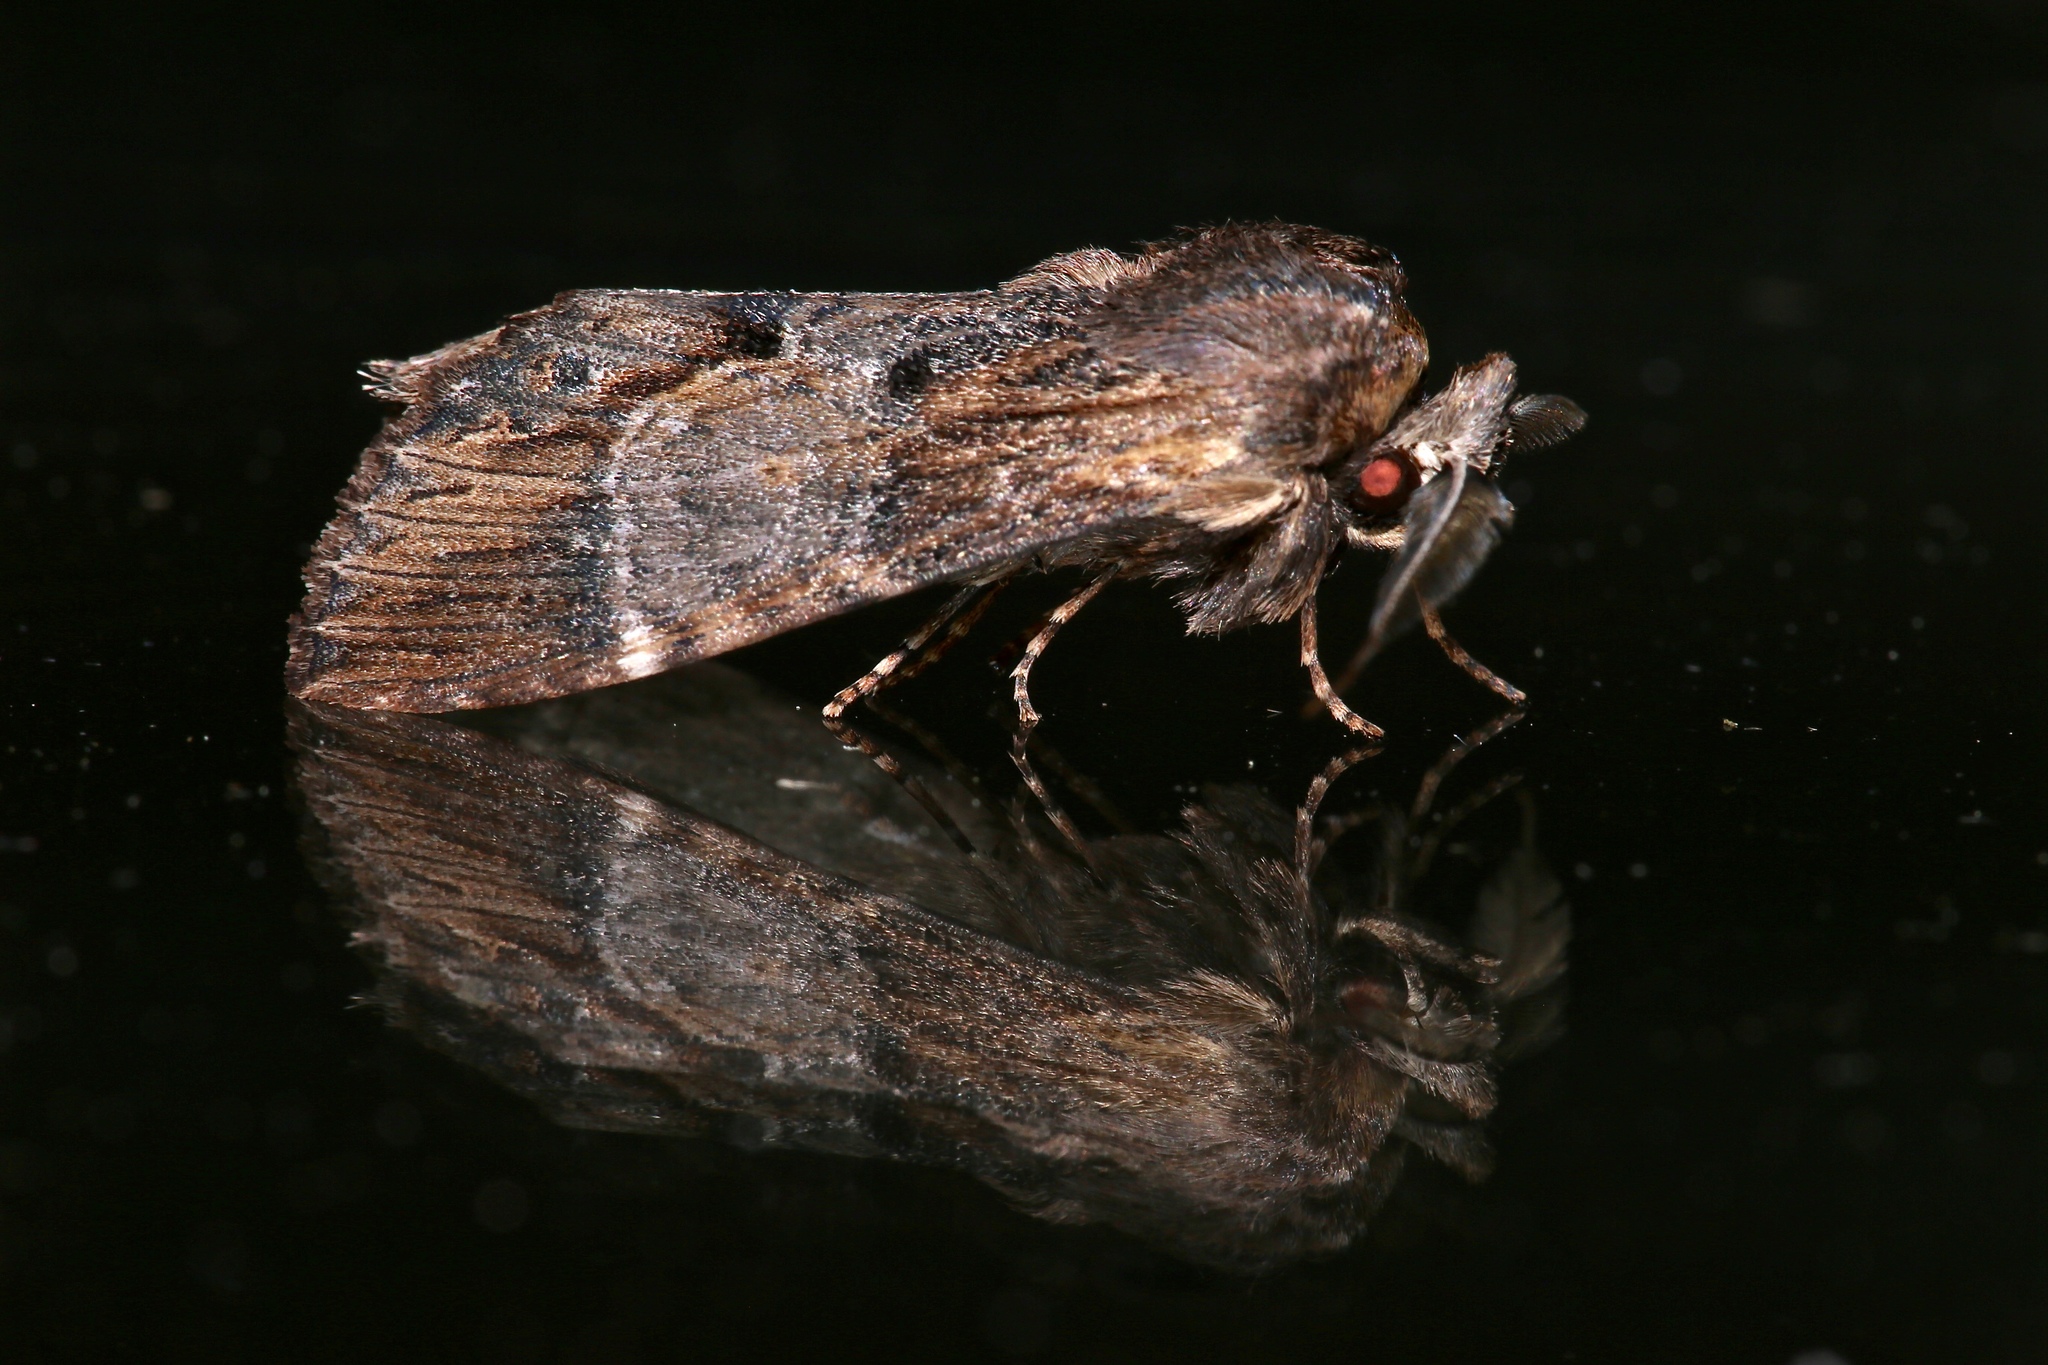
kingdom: Animalia
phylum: Arthropoda
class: Insecta
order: Lepidoptera
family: Notodontidae
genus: Dasylophia
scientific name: Dasylophia thyatiroides
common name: Gray-patched prominent
